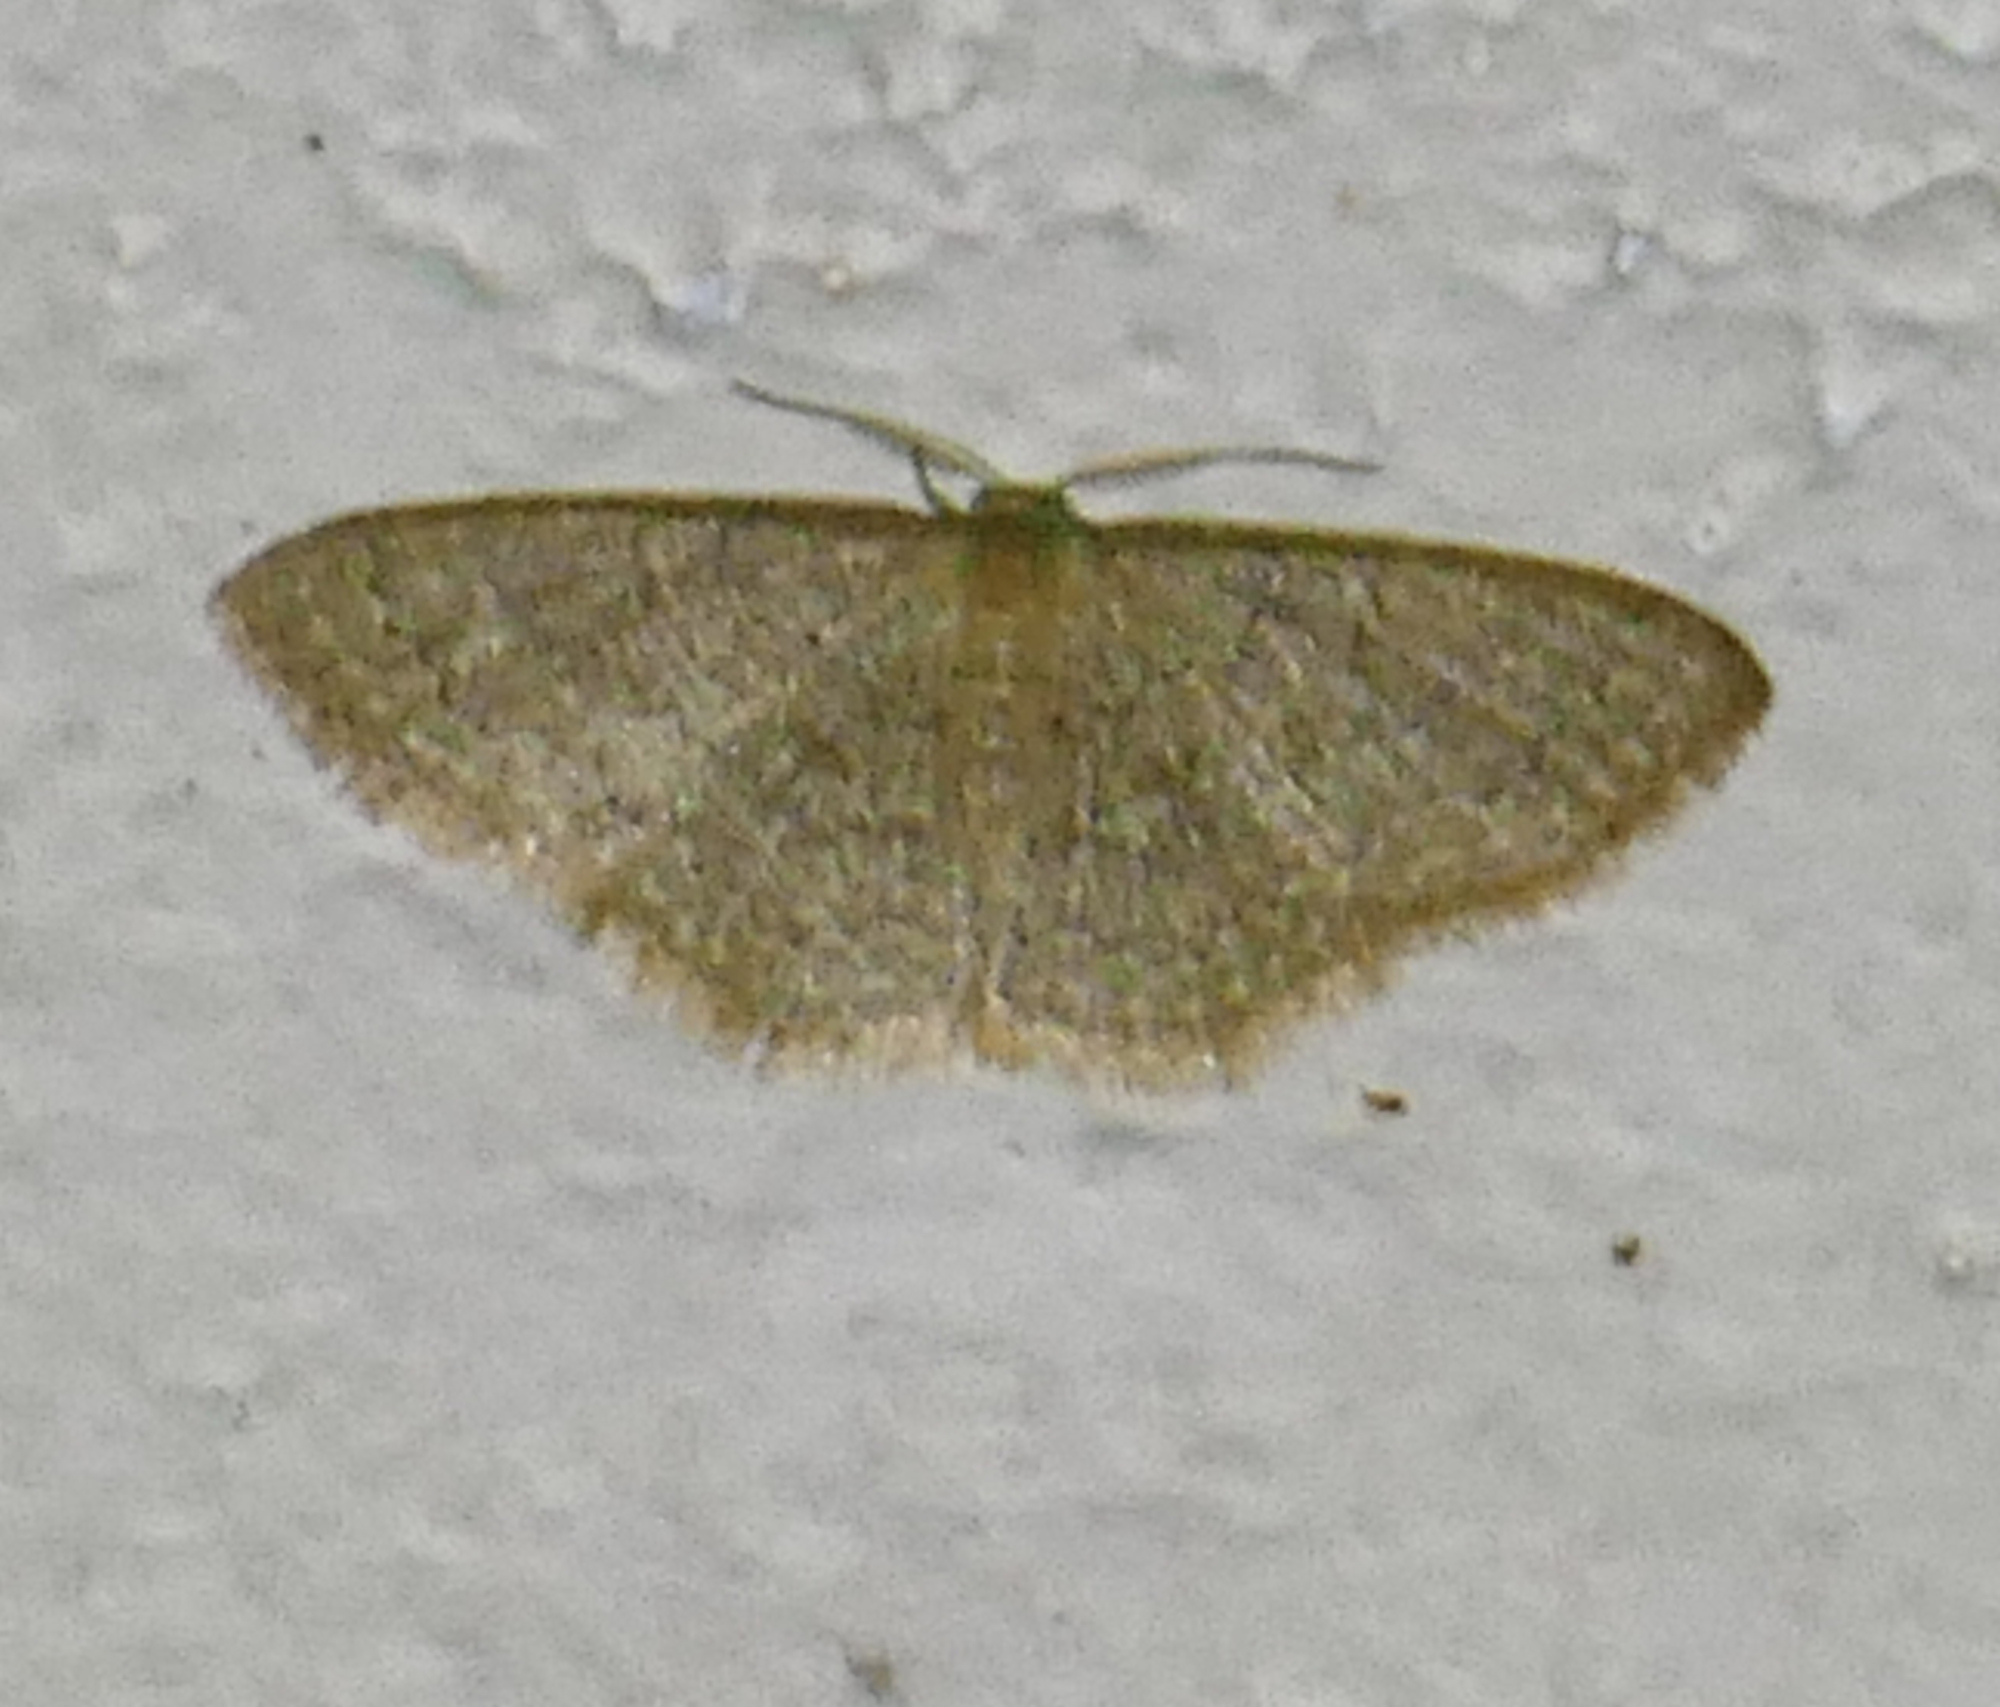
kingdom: Animalia
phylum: Arthropoda
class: Insecta
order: Lepidoptera
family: Geometridae
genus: Pleuroprucha
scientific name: Pleuroprucha insulsaria
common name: Common tan wave
